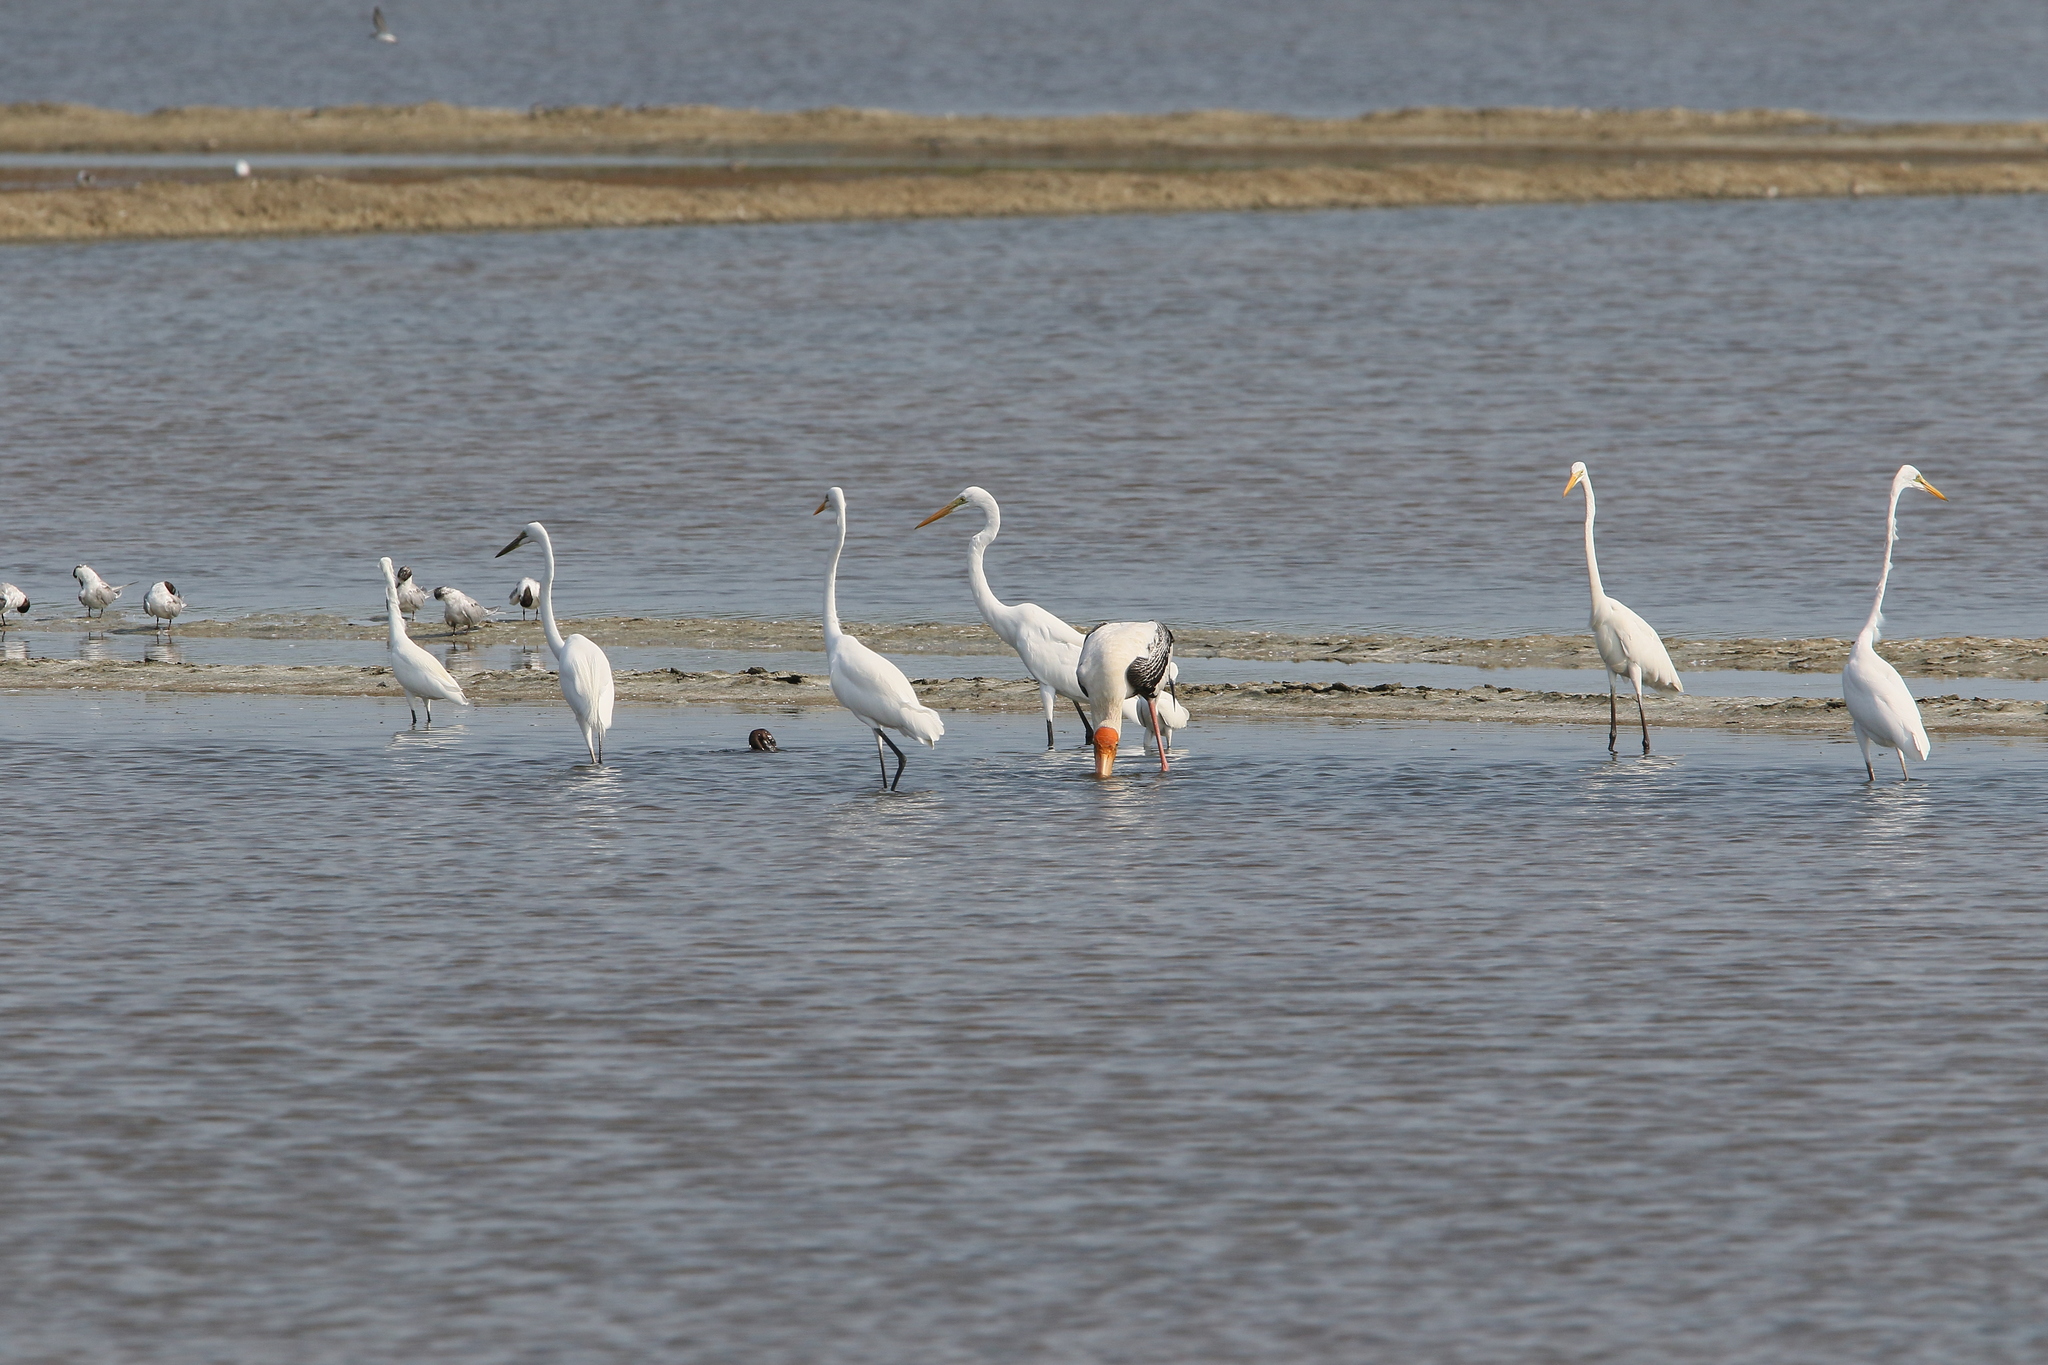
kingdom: Animalia
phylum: Chordata
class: Aves
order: Ciconiiformes
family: Ciconiidae
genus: Mycteria
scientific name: Mycteria leucocephala
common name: Painted stork
